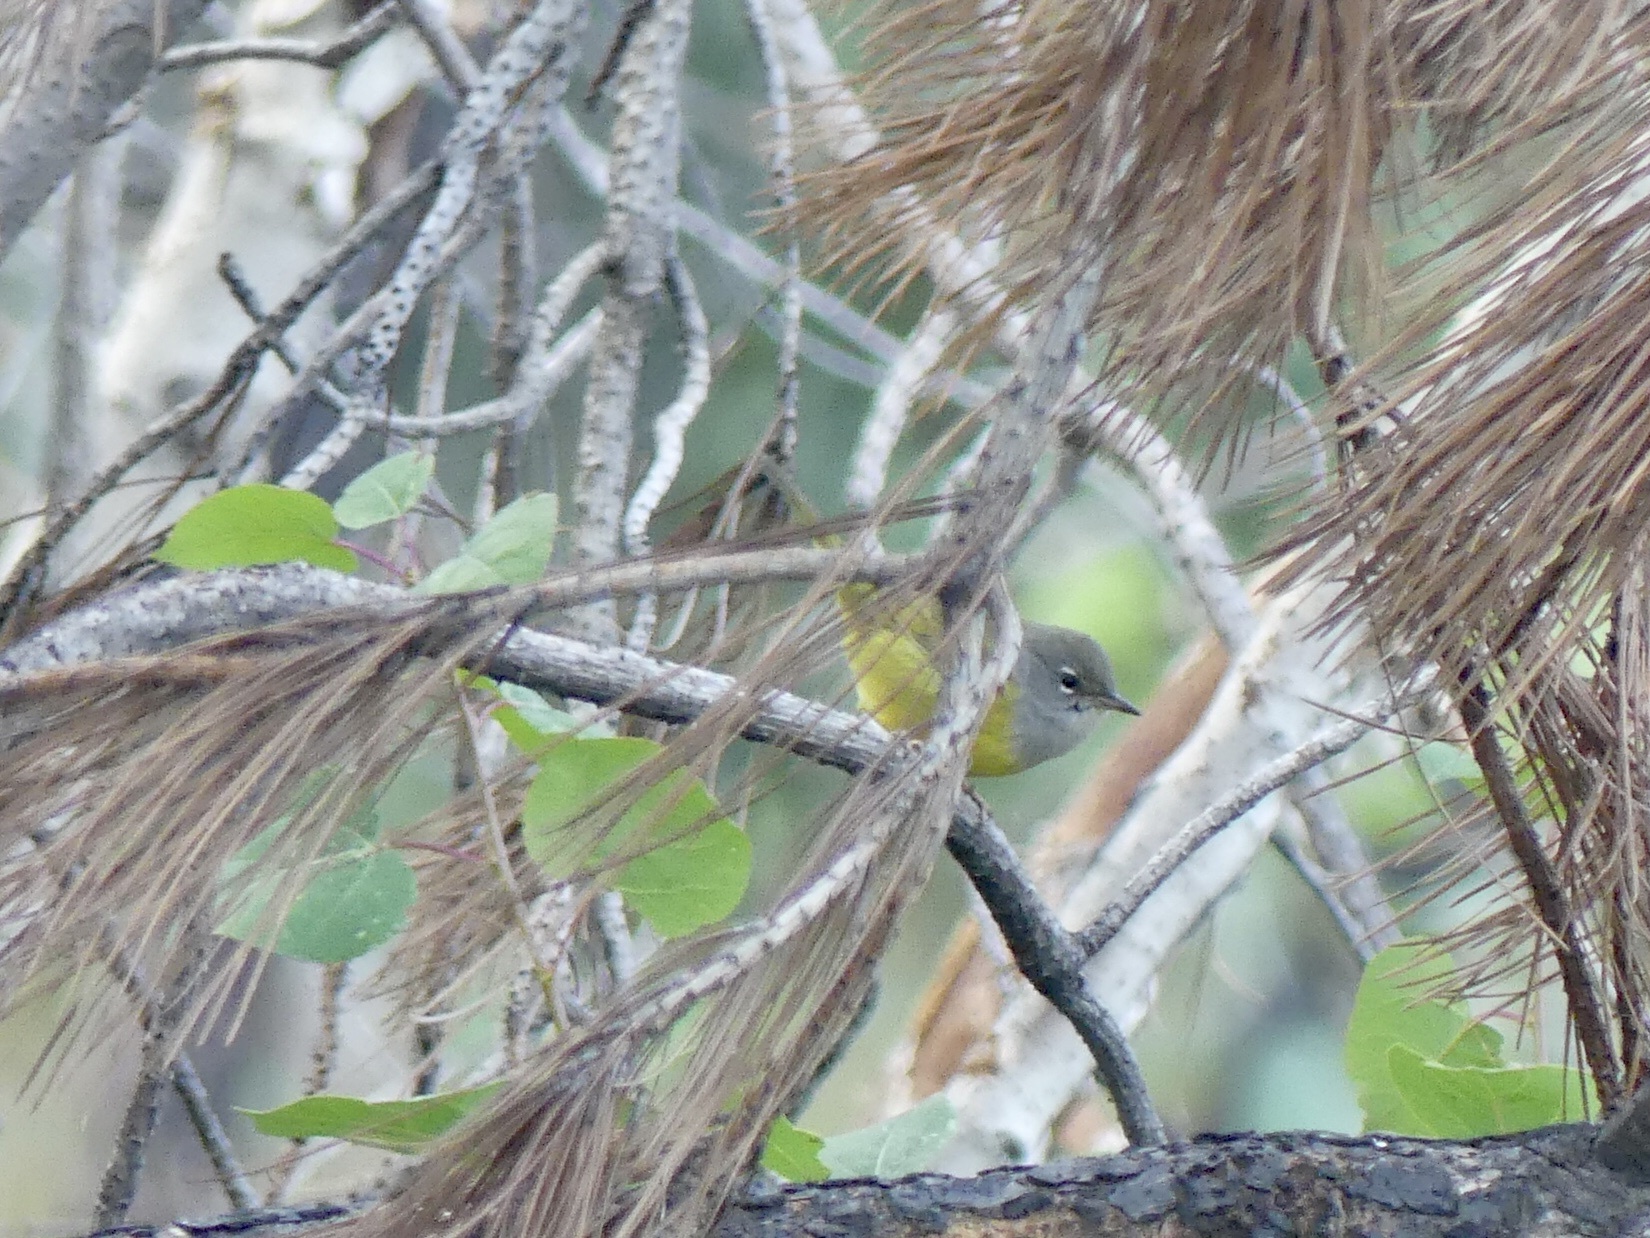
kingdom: Animalia
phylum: Chordata
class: Aves
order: Passeriformes
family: Parulidae
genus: Geothlypis
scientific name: Geothlypis tolmiei
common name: Macgillivray's warbler
